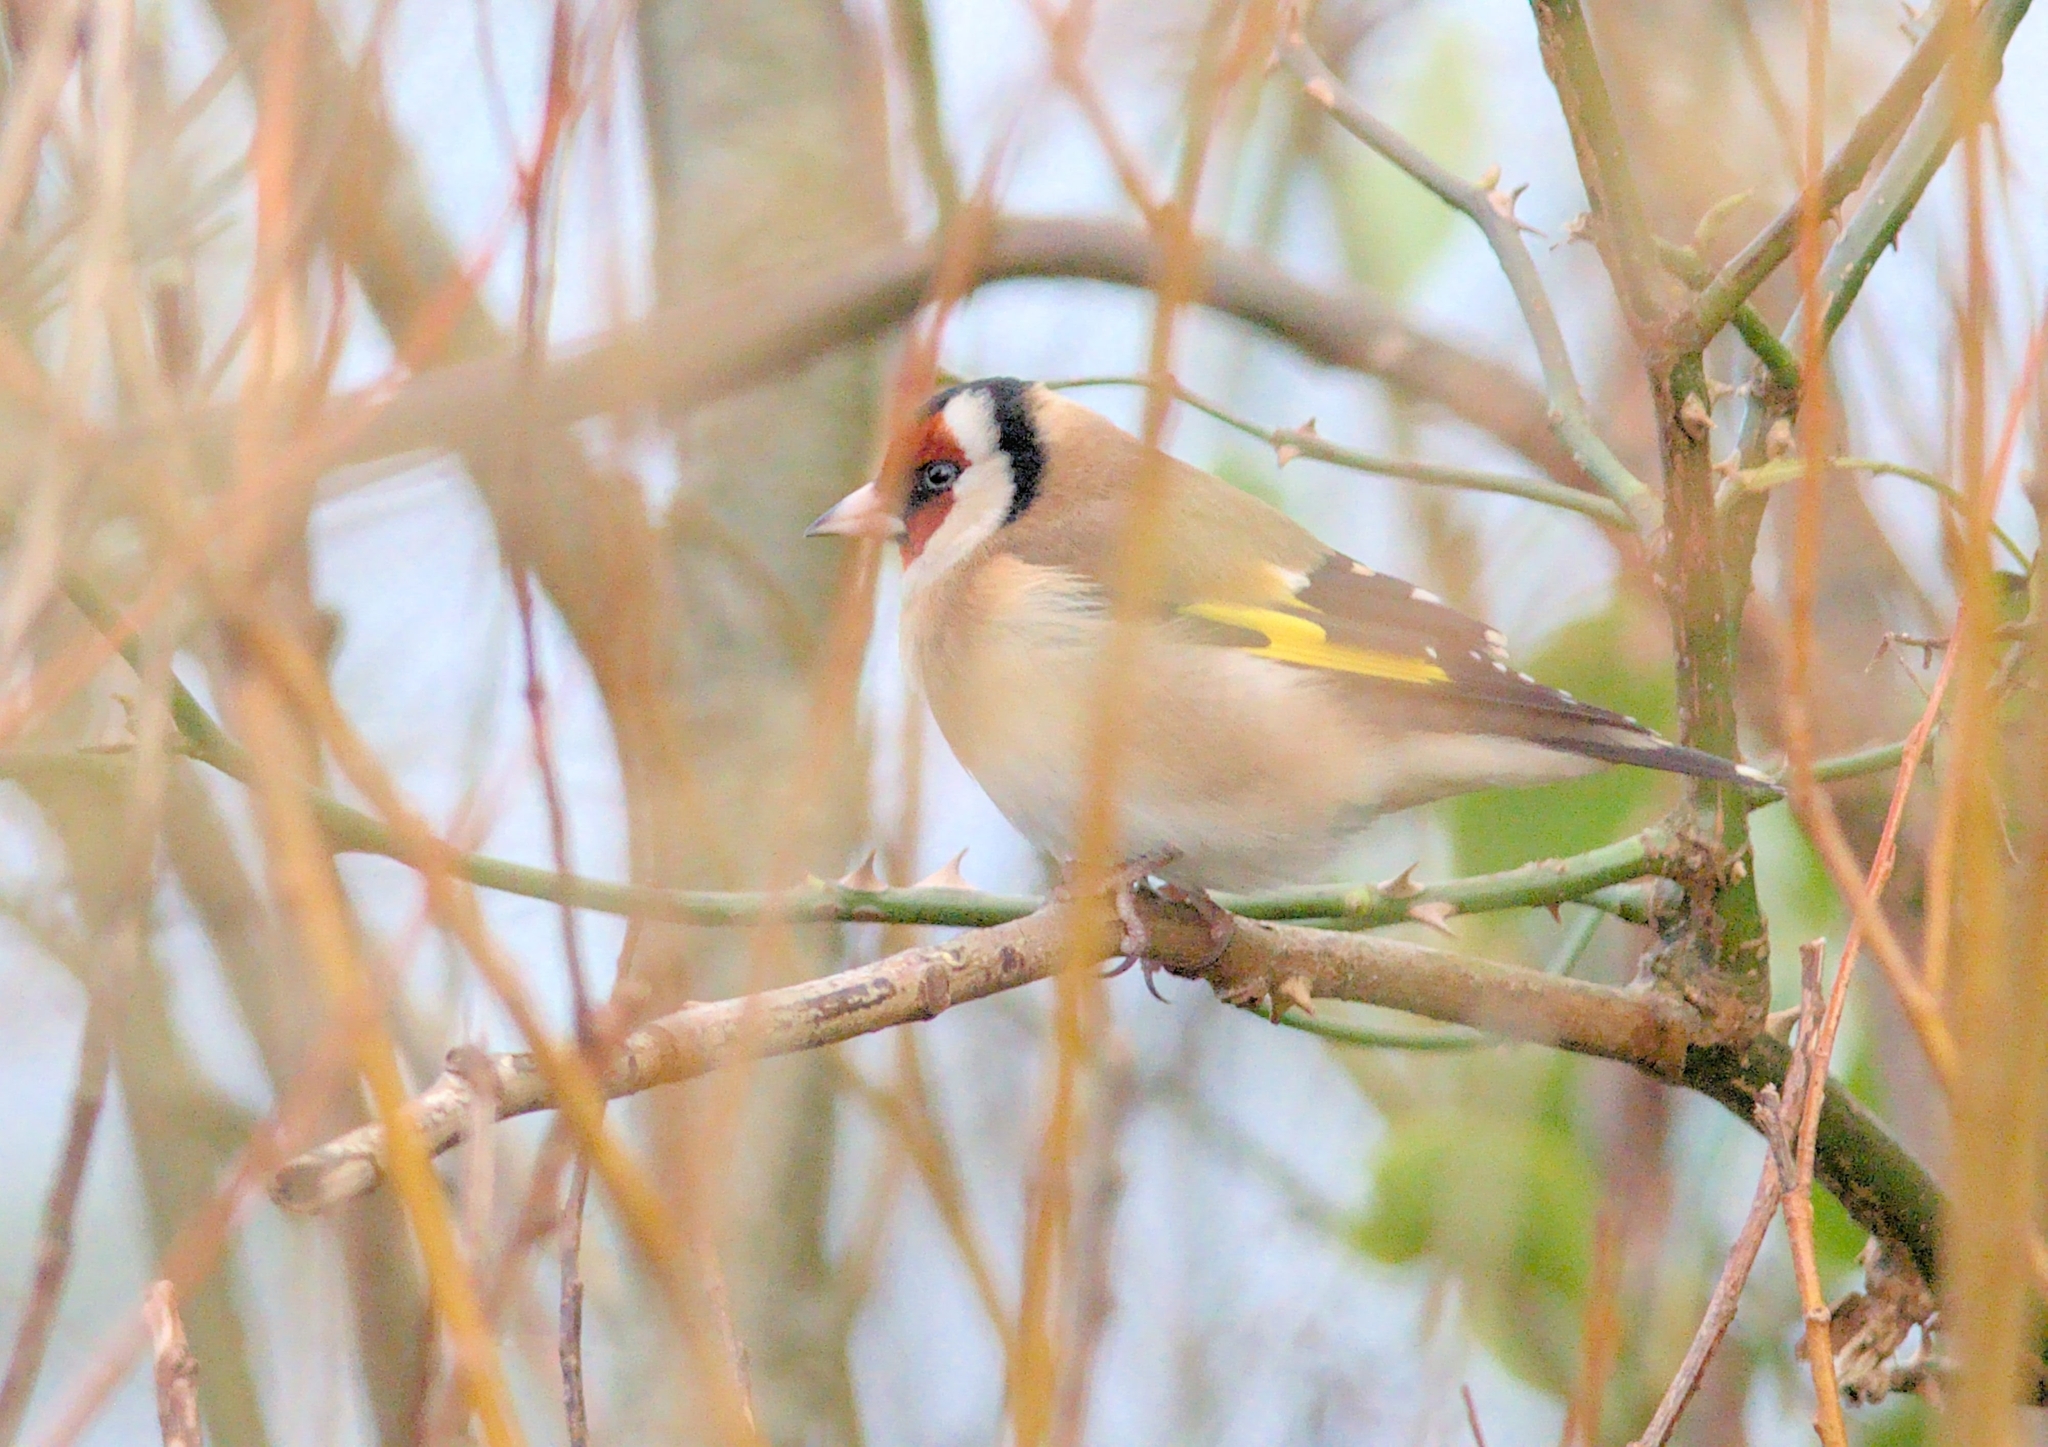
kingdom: Animalia
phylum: Chordata
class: Aves
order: Passeriformes
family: Fringillidae
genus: Carduelis
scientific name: Carduelis carduelis
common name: European goldfinch
